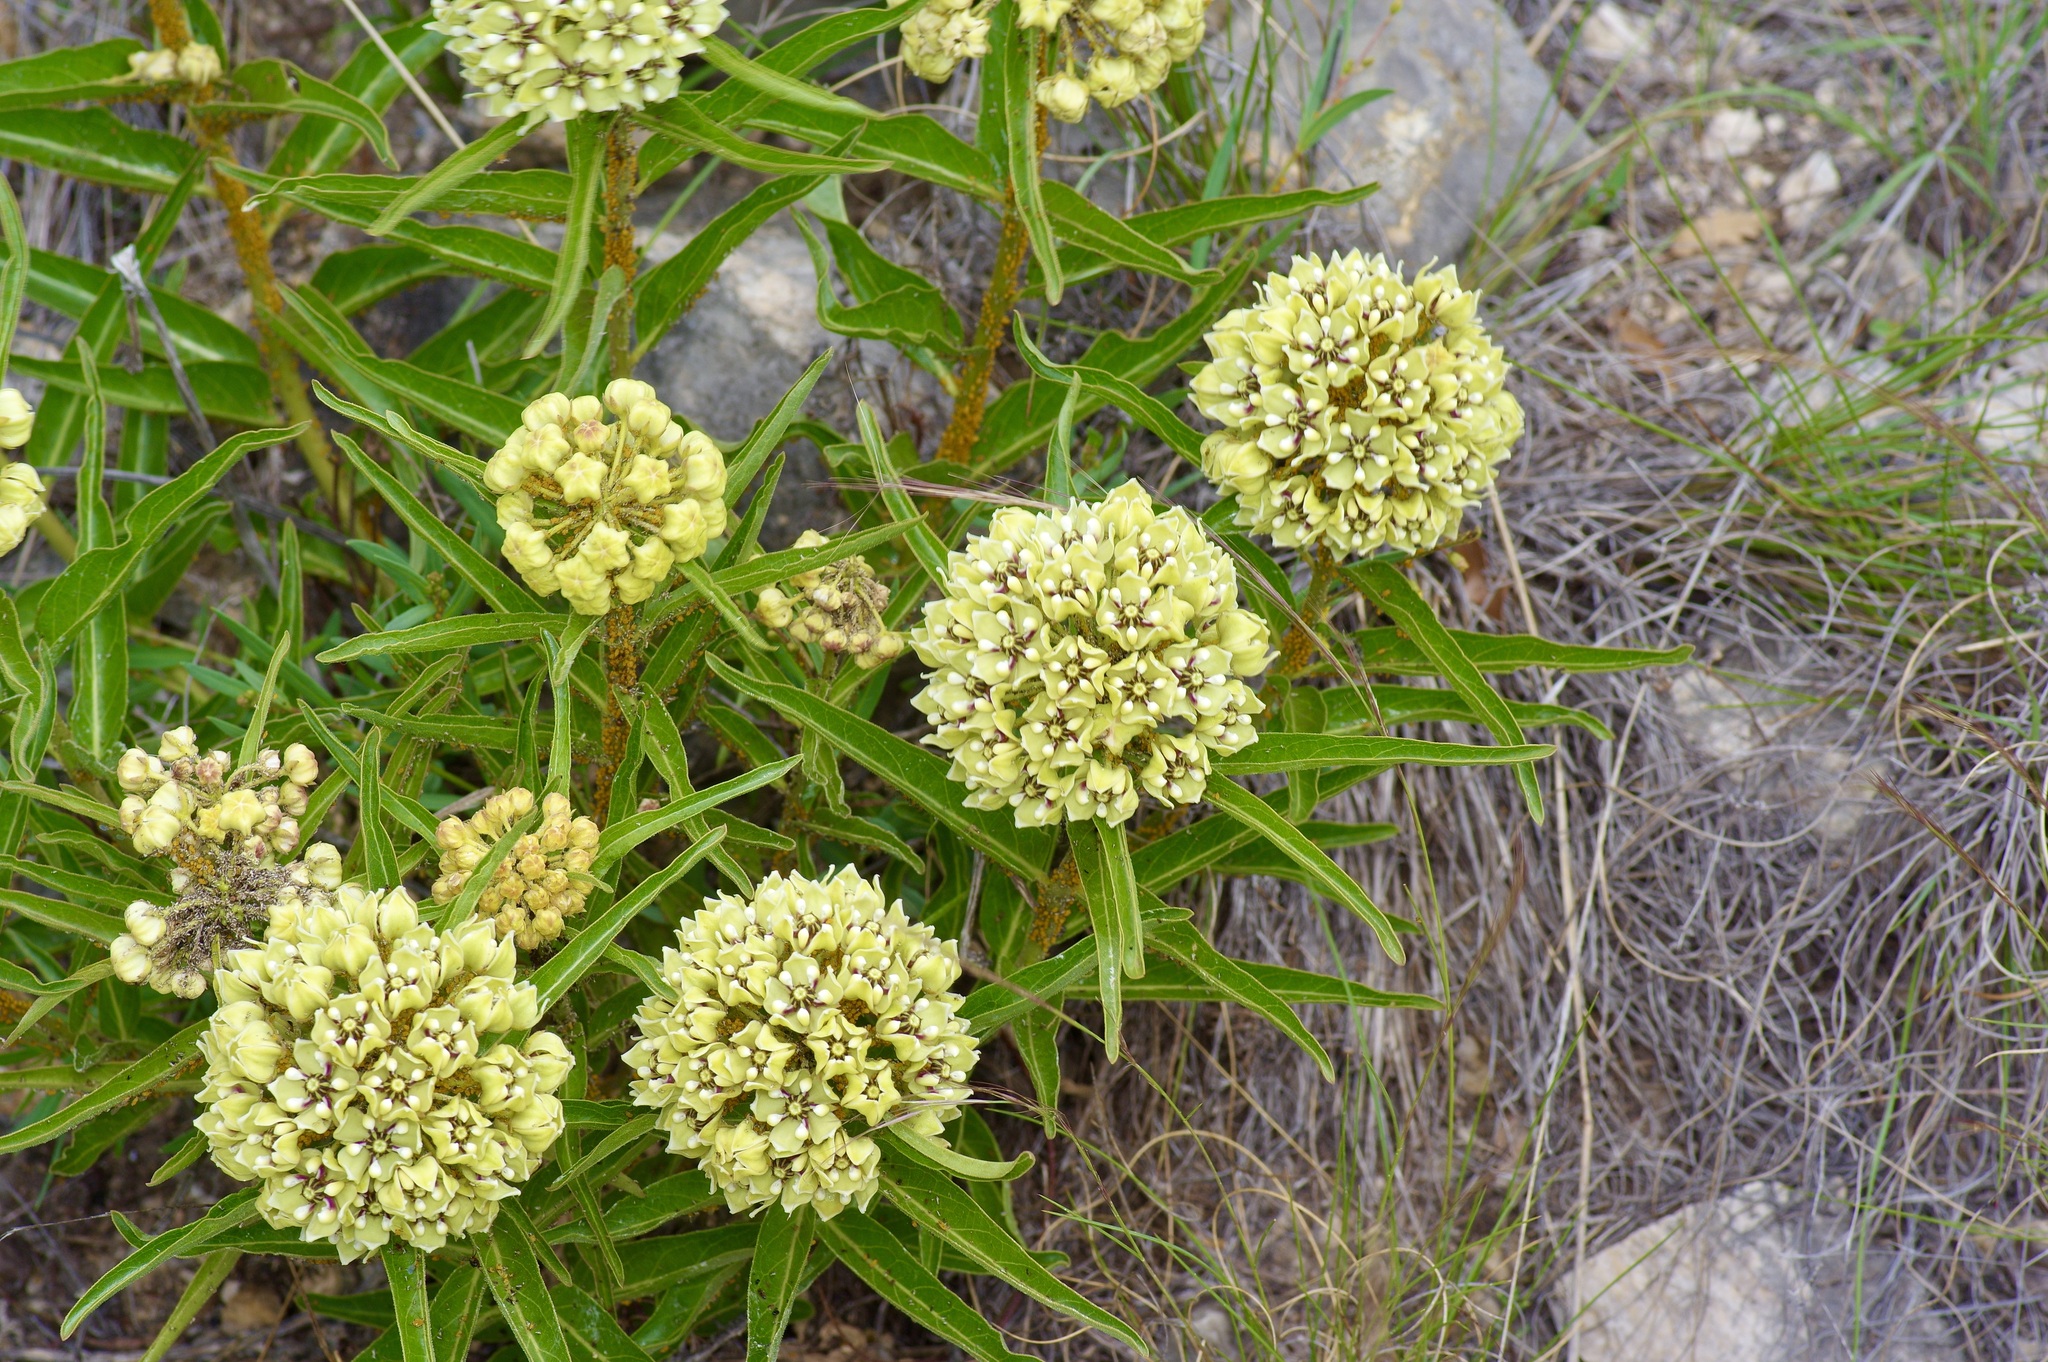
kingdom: Plantae
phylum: Tracheophyta
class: Magnoliopsida
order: Gentianales
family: Apocynaceae
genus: Asclepias
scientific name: Asclepias asperula
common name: Antelope horns
